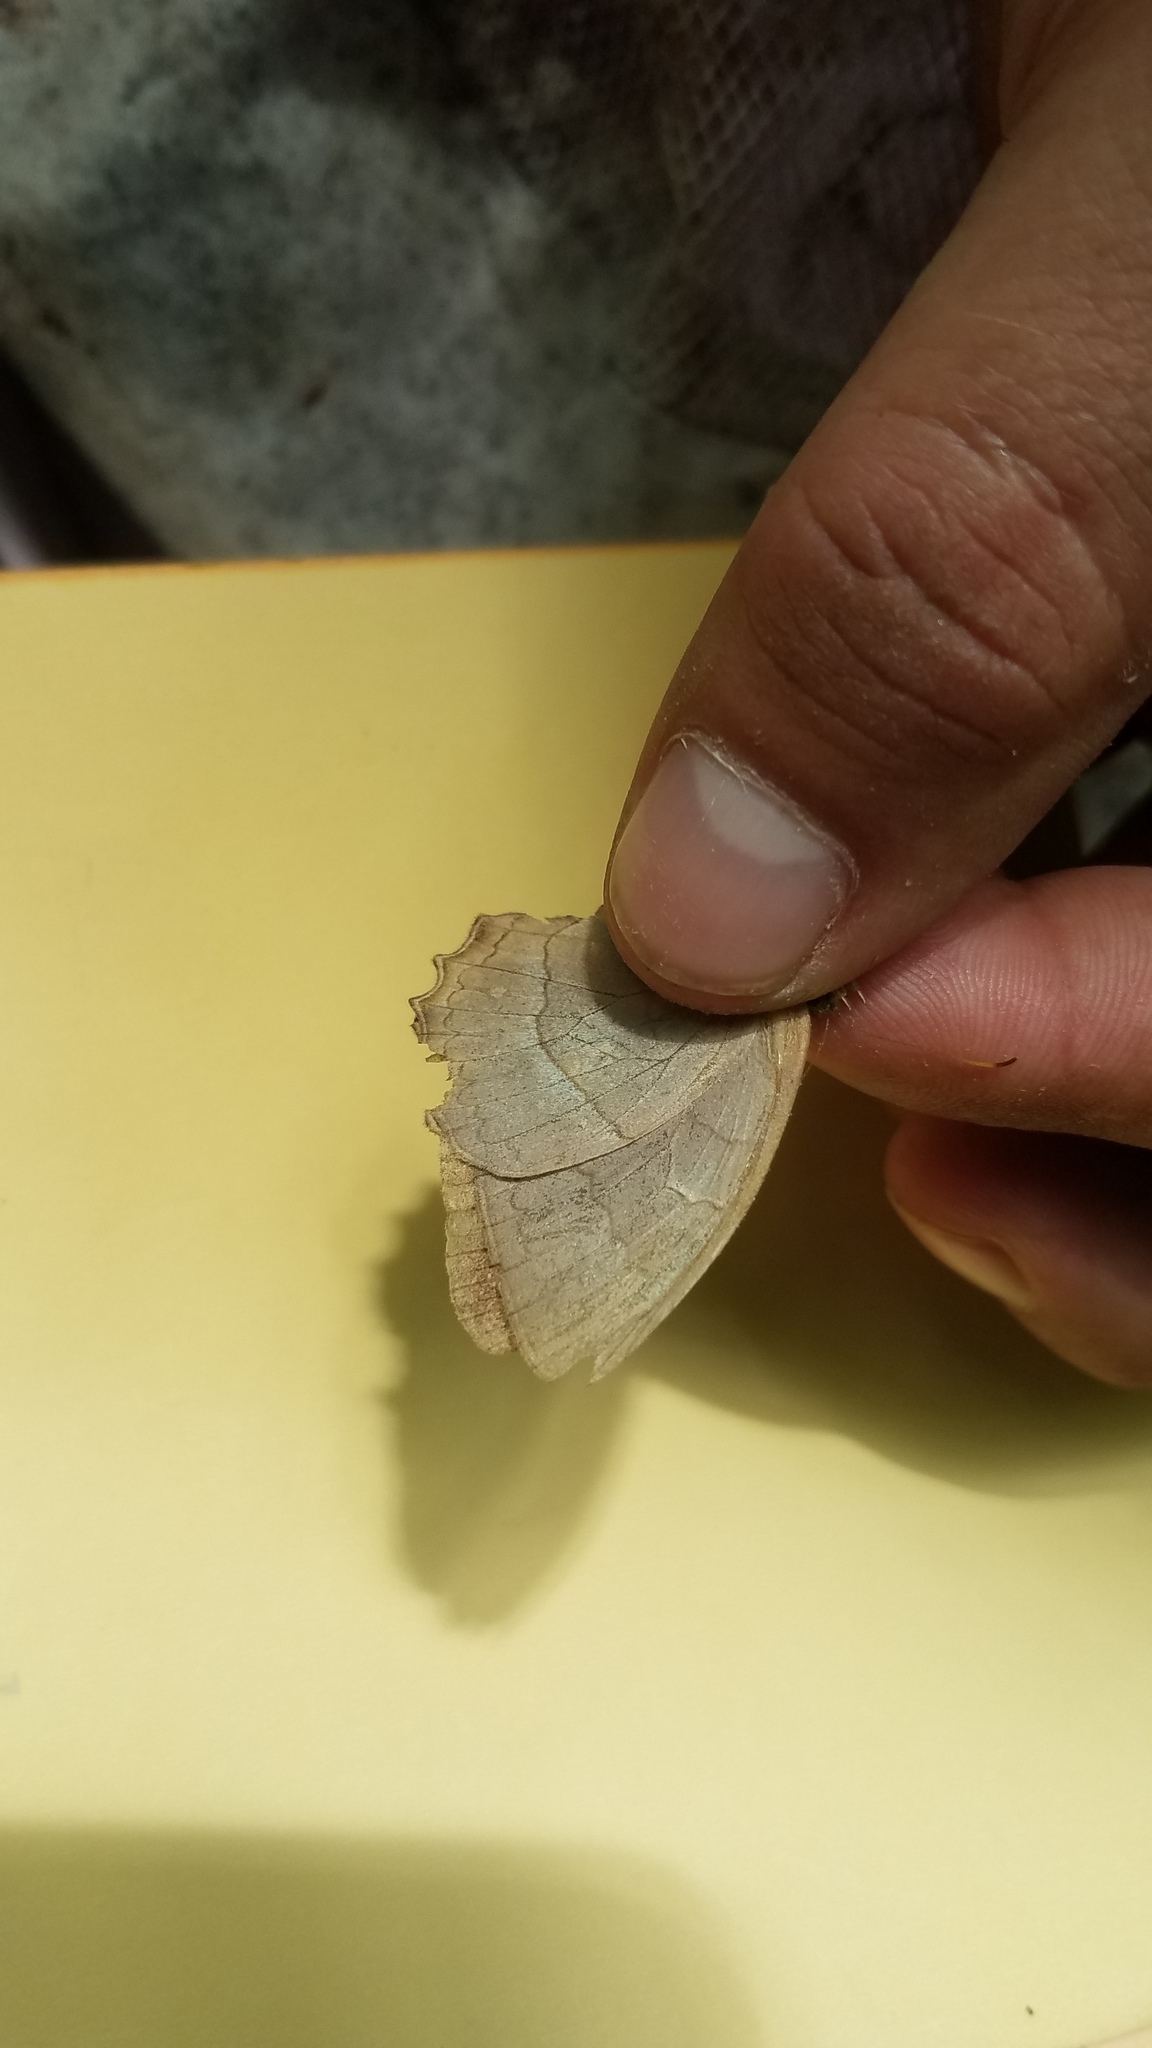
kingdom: Animalia
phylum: Arthropoda
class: Insecta
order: Lepidoptera
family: Nymphalidae
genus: Taygetina
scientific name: Taygetina kerea
